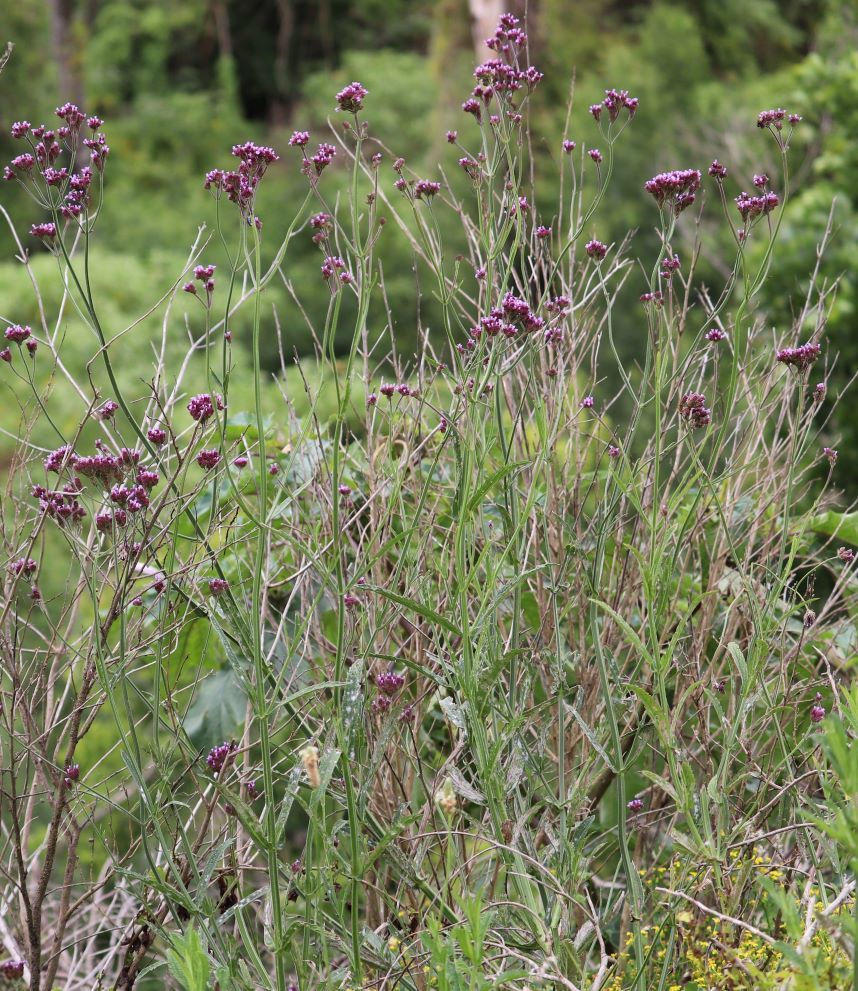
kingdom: Plantae
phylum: Tracheophyta
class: Magnoliopsida
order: Lamiales
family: Verbenaceae
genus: Verbena
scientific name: Verbena bonariensis
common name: Purpletop vervain
